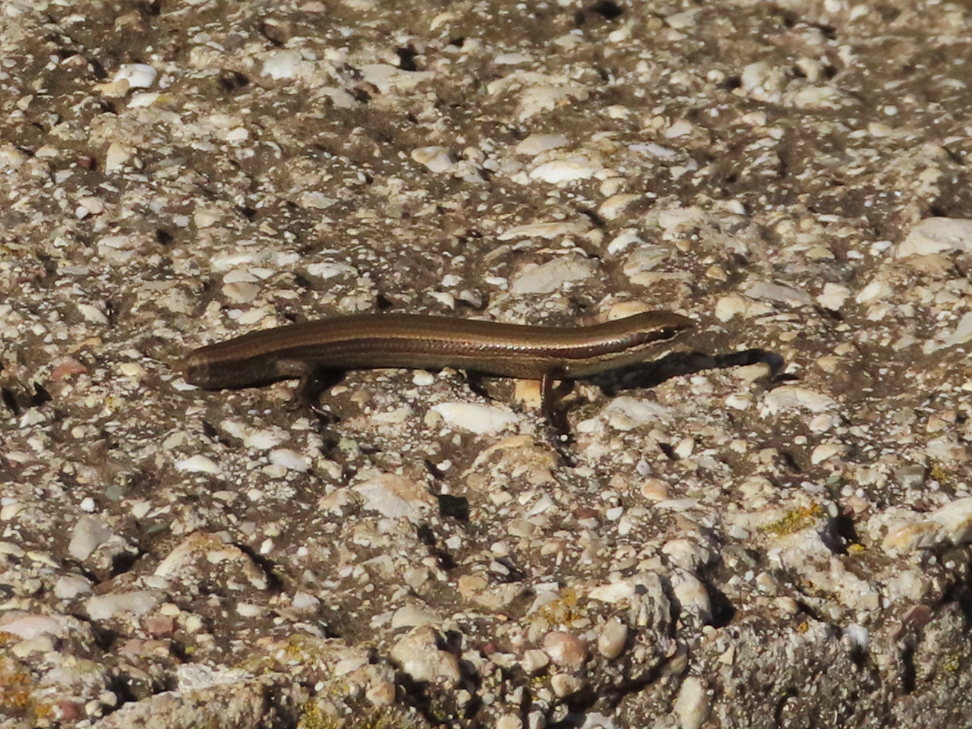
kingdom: Animalia
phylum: Chordata
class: Squamata
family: Scincidae
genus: Ablepharus
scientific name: Ablepharus kitaibelii
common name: Juniper skink
